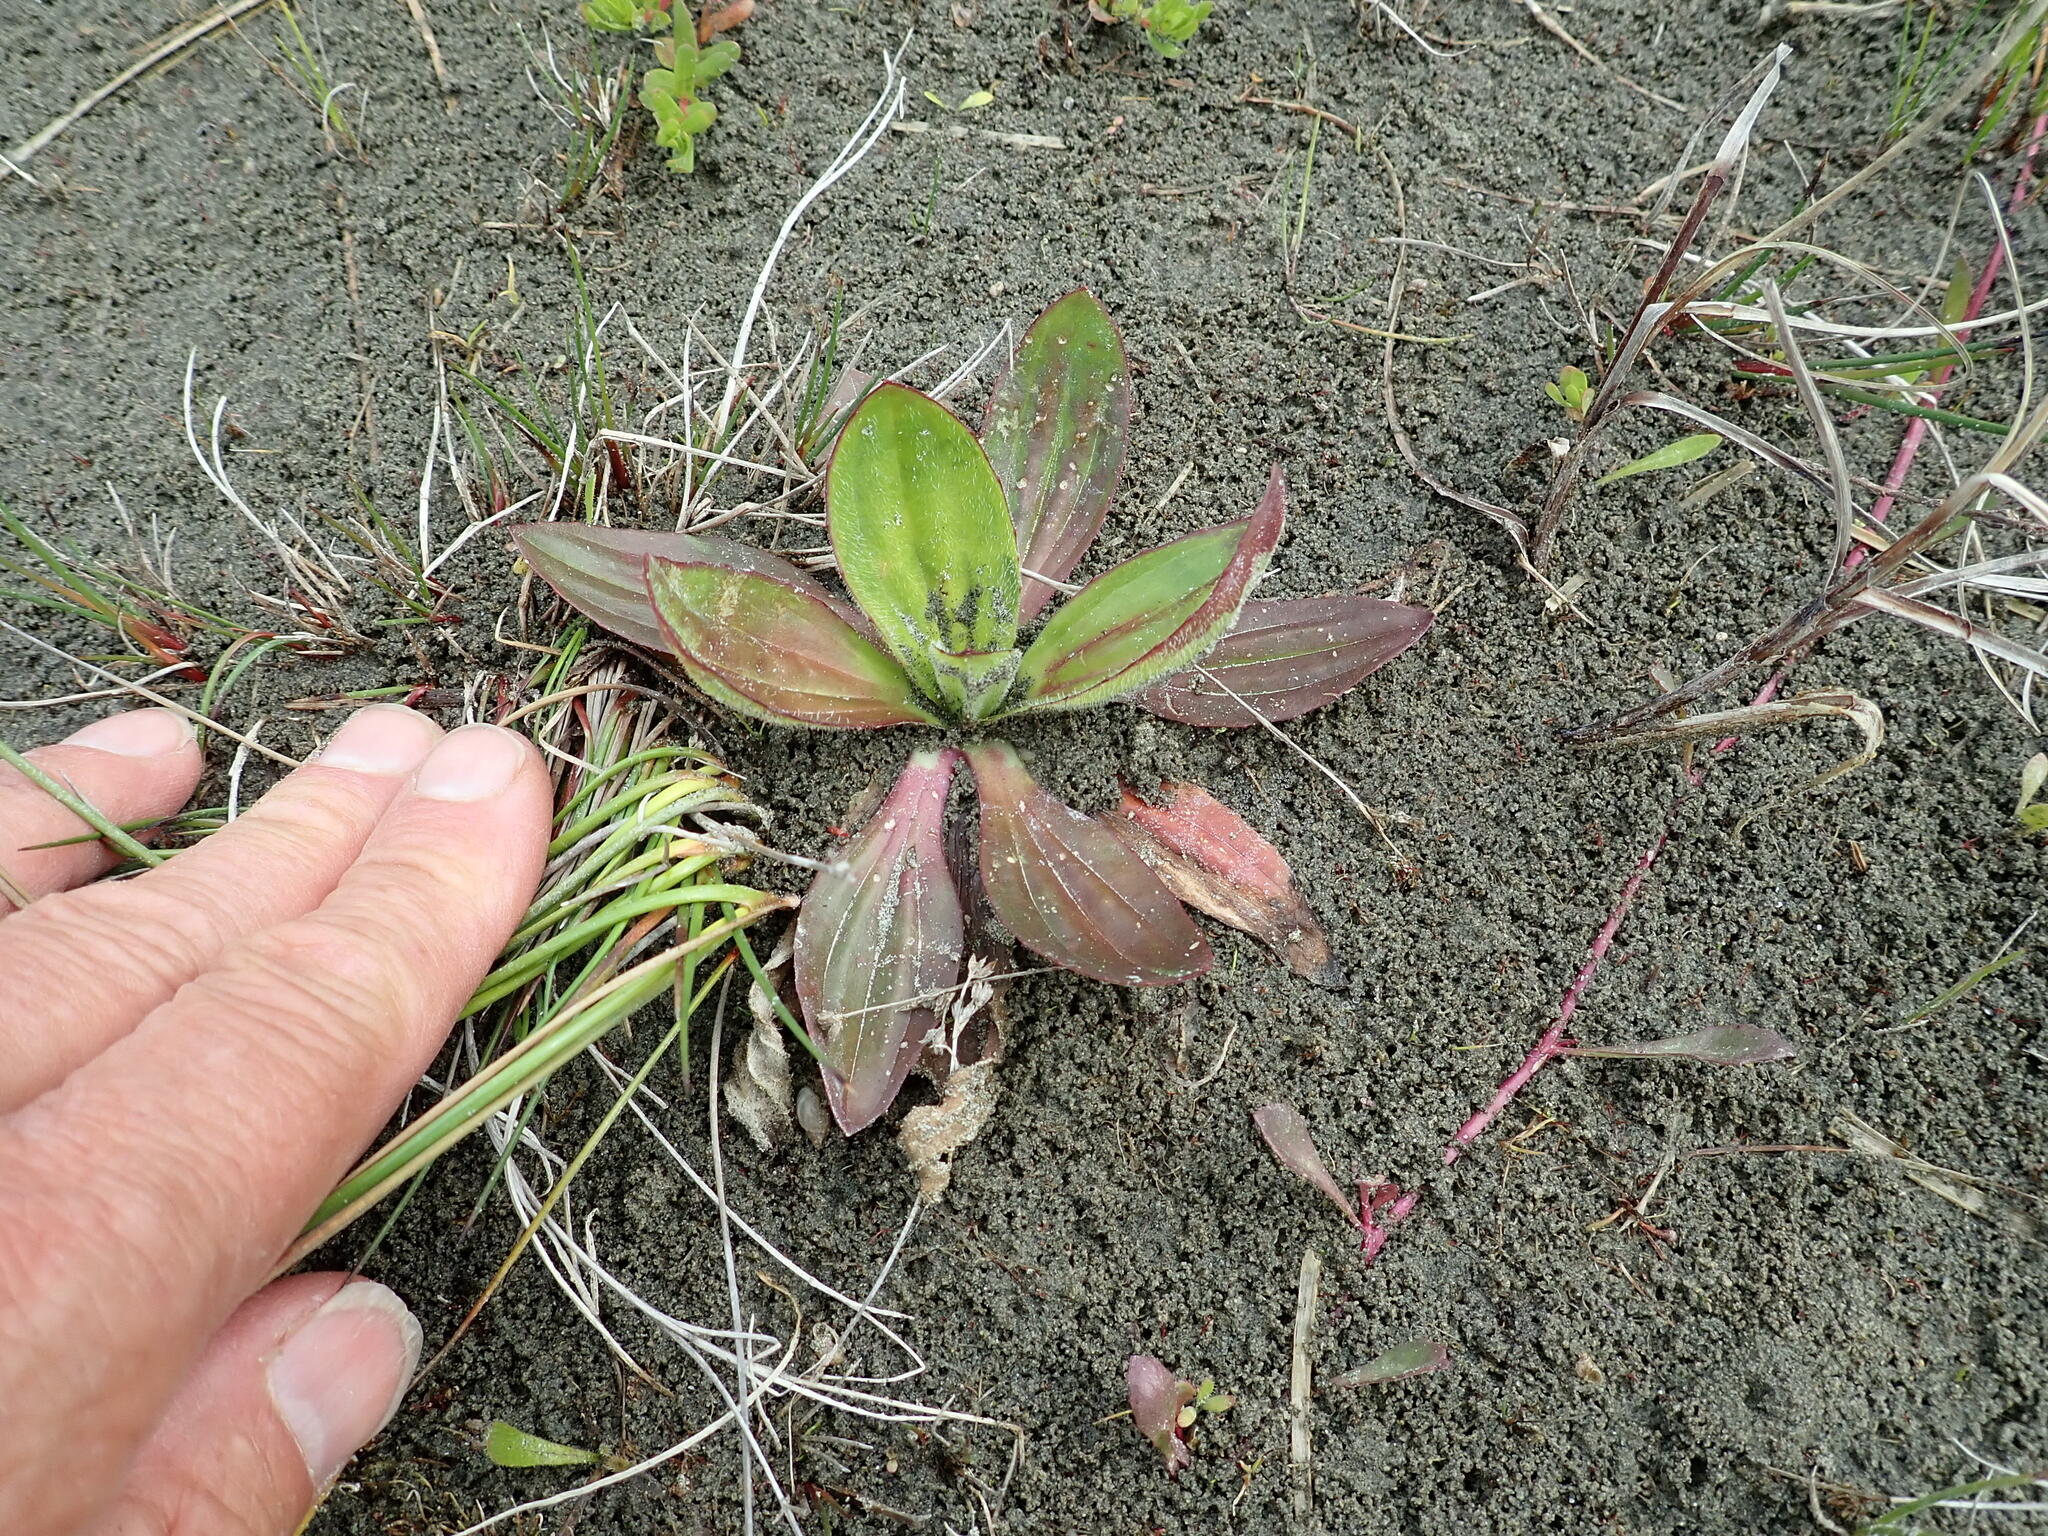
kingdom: Plantae
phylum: Tracheophyta
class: Magnoliopsida
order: Lamiales
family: Plantaginaceae
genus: Plantago
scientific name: Plantago australis
